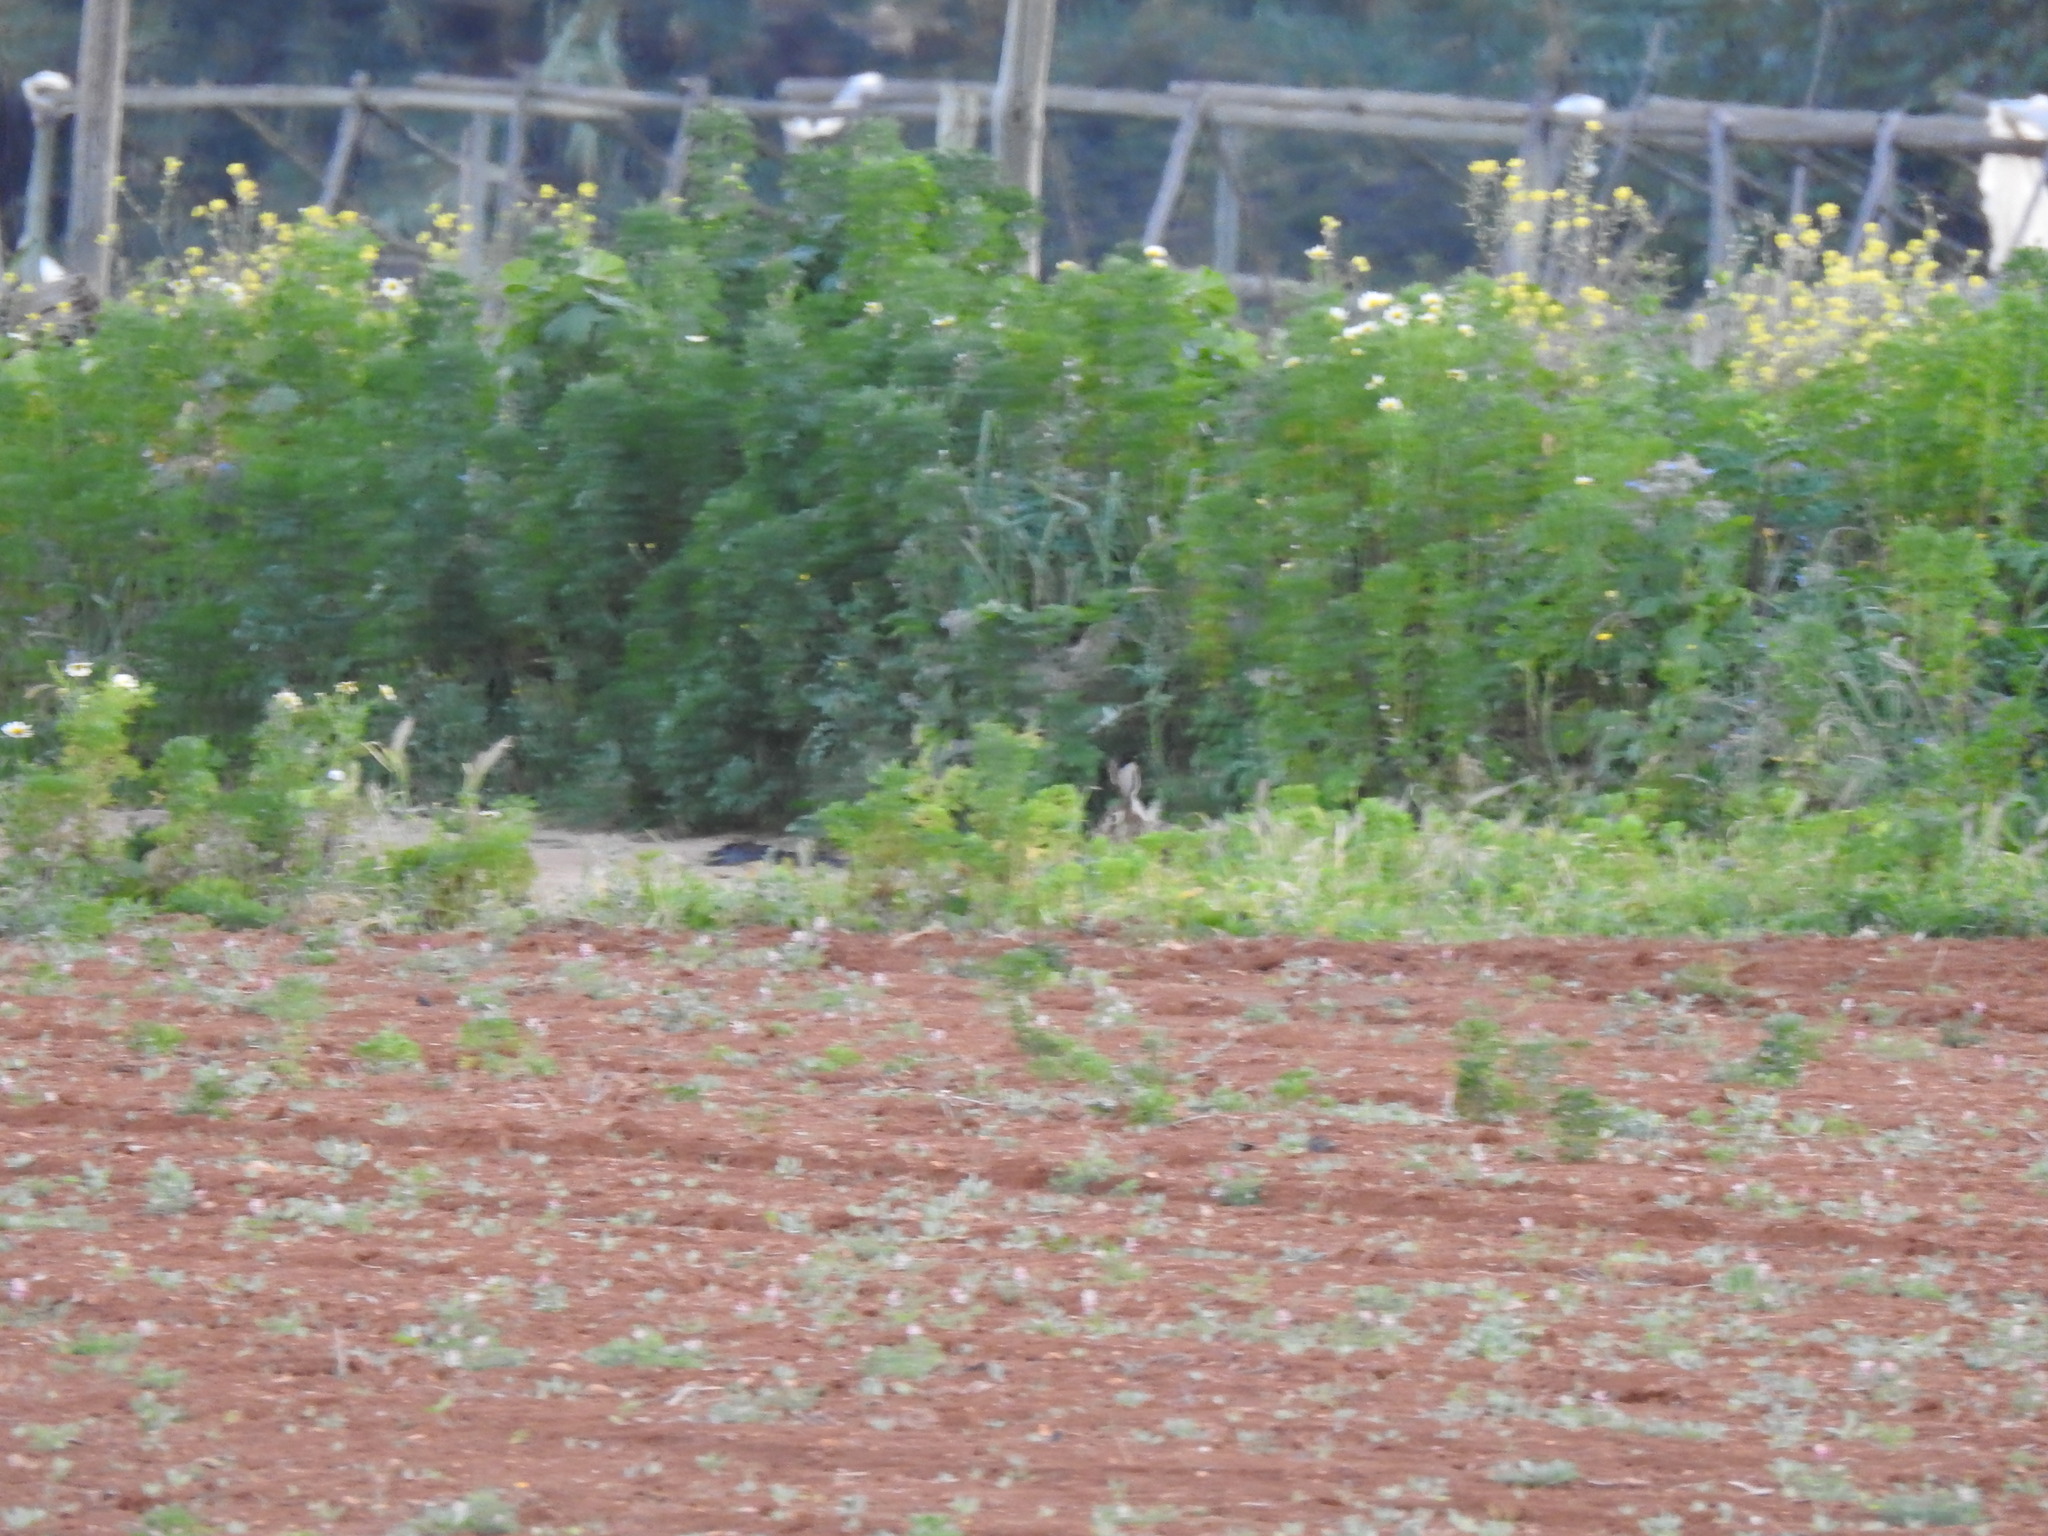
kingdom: Animalia
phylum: Chordata
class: Mammalia
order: Lagomorpha
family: Leporidae
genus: Lepus
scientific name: Lepus granatensis
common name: Granada hare
